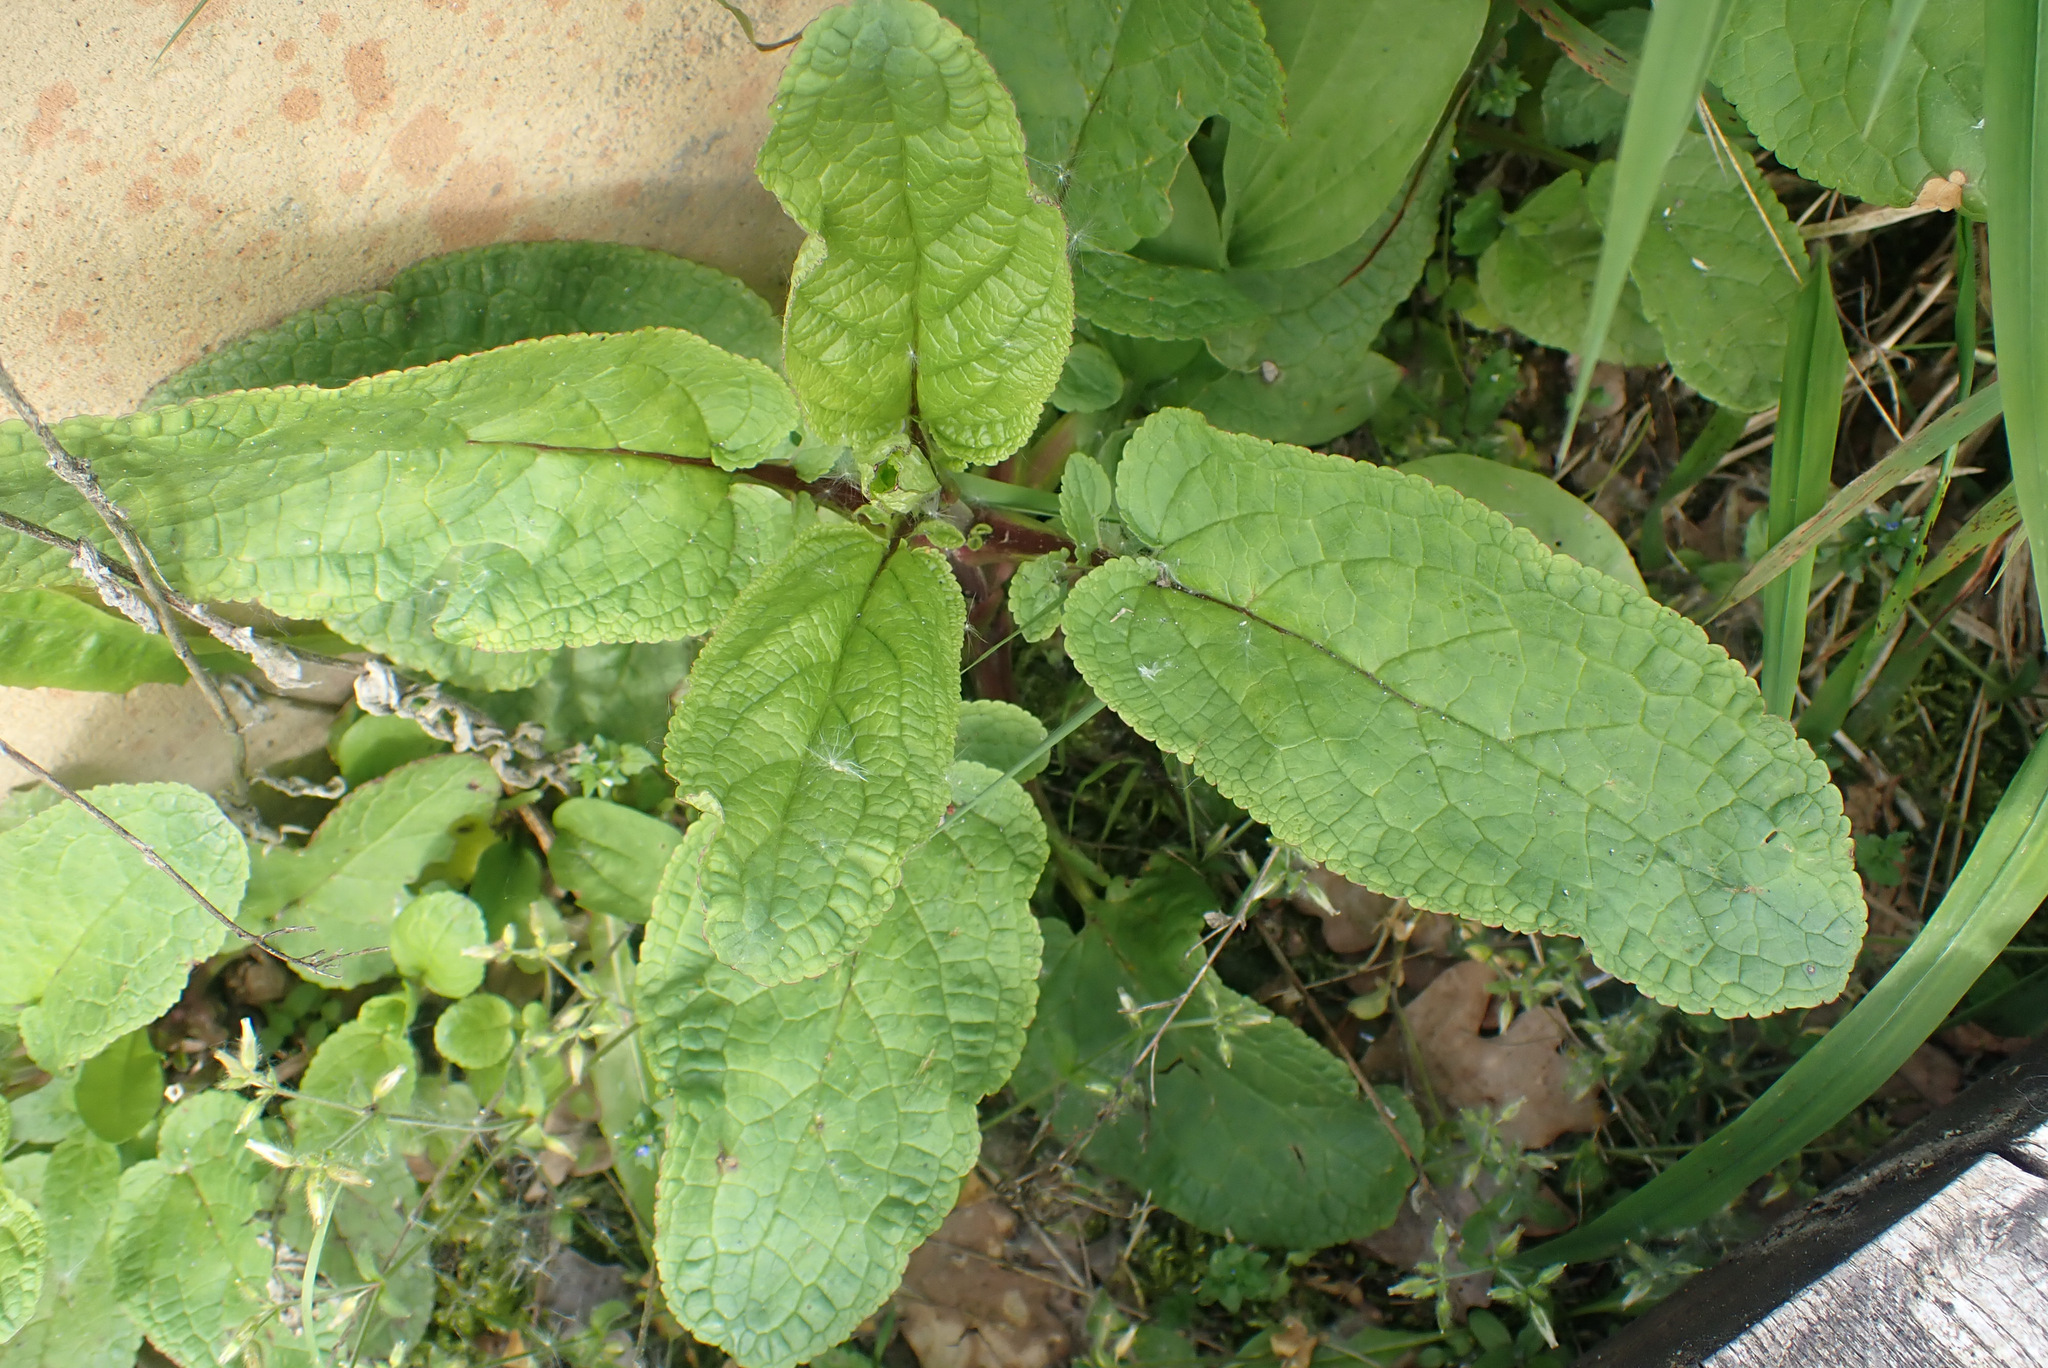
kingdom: Plantae
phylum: Tracheophyta
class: Magnoliopsida
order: Lamiales
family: Scrophulariaceae
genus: Scrophularia
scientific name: Scrophularia auriculata
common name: Water betony
